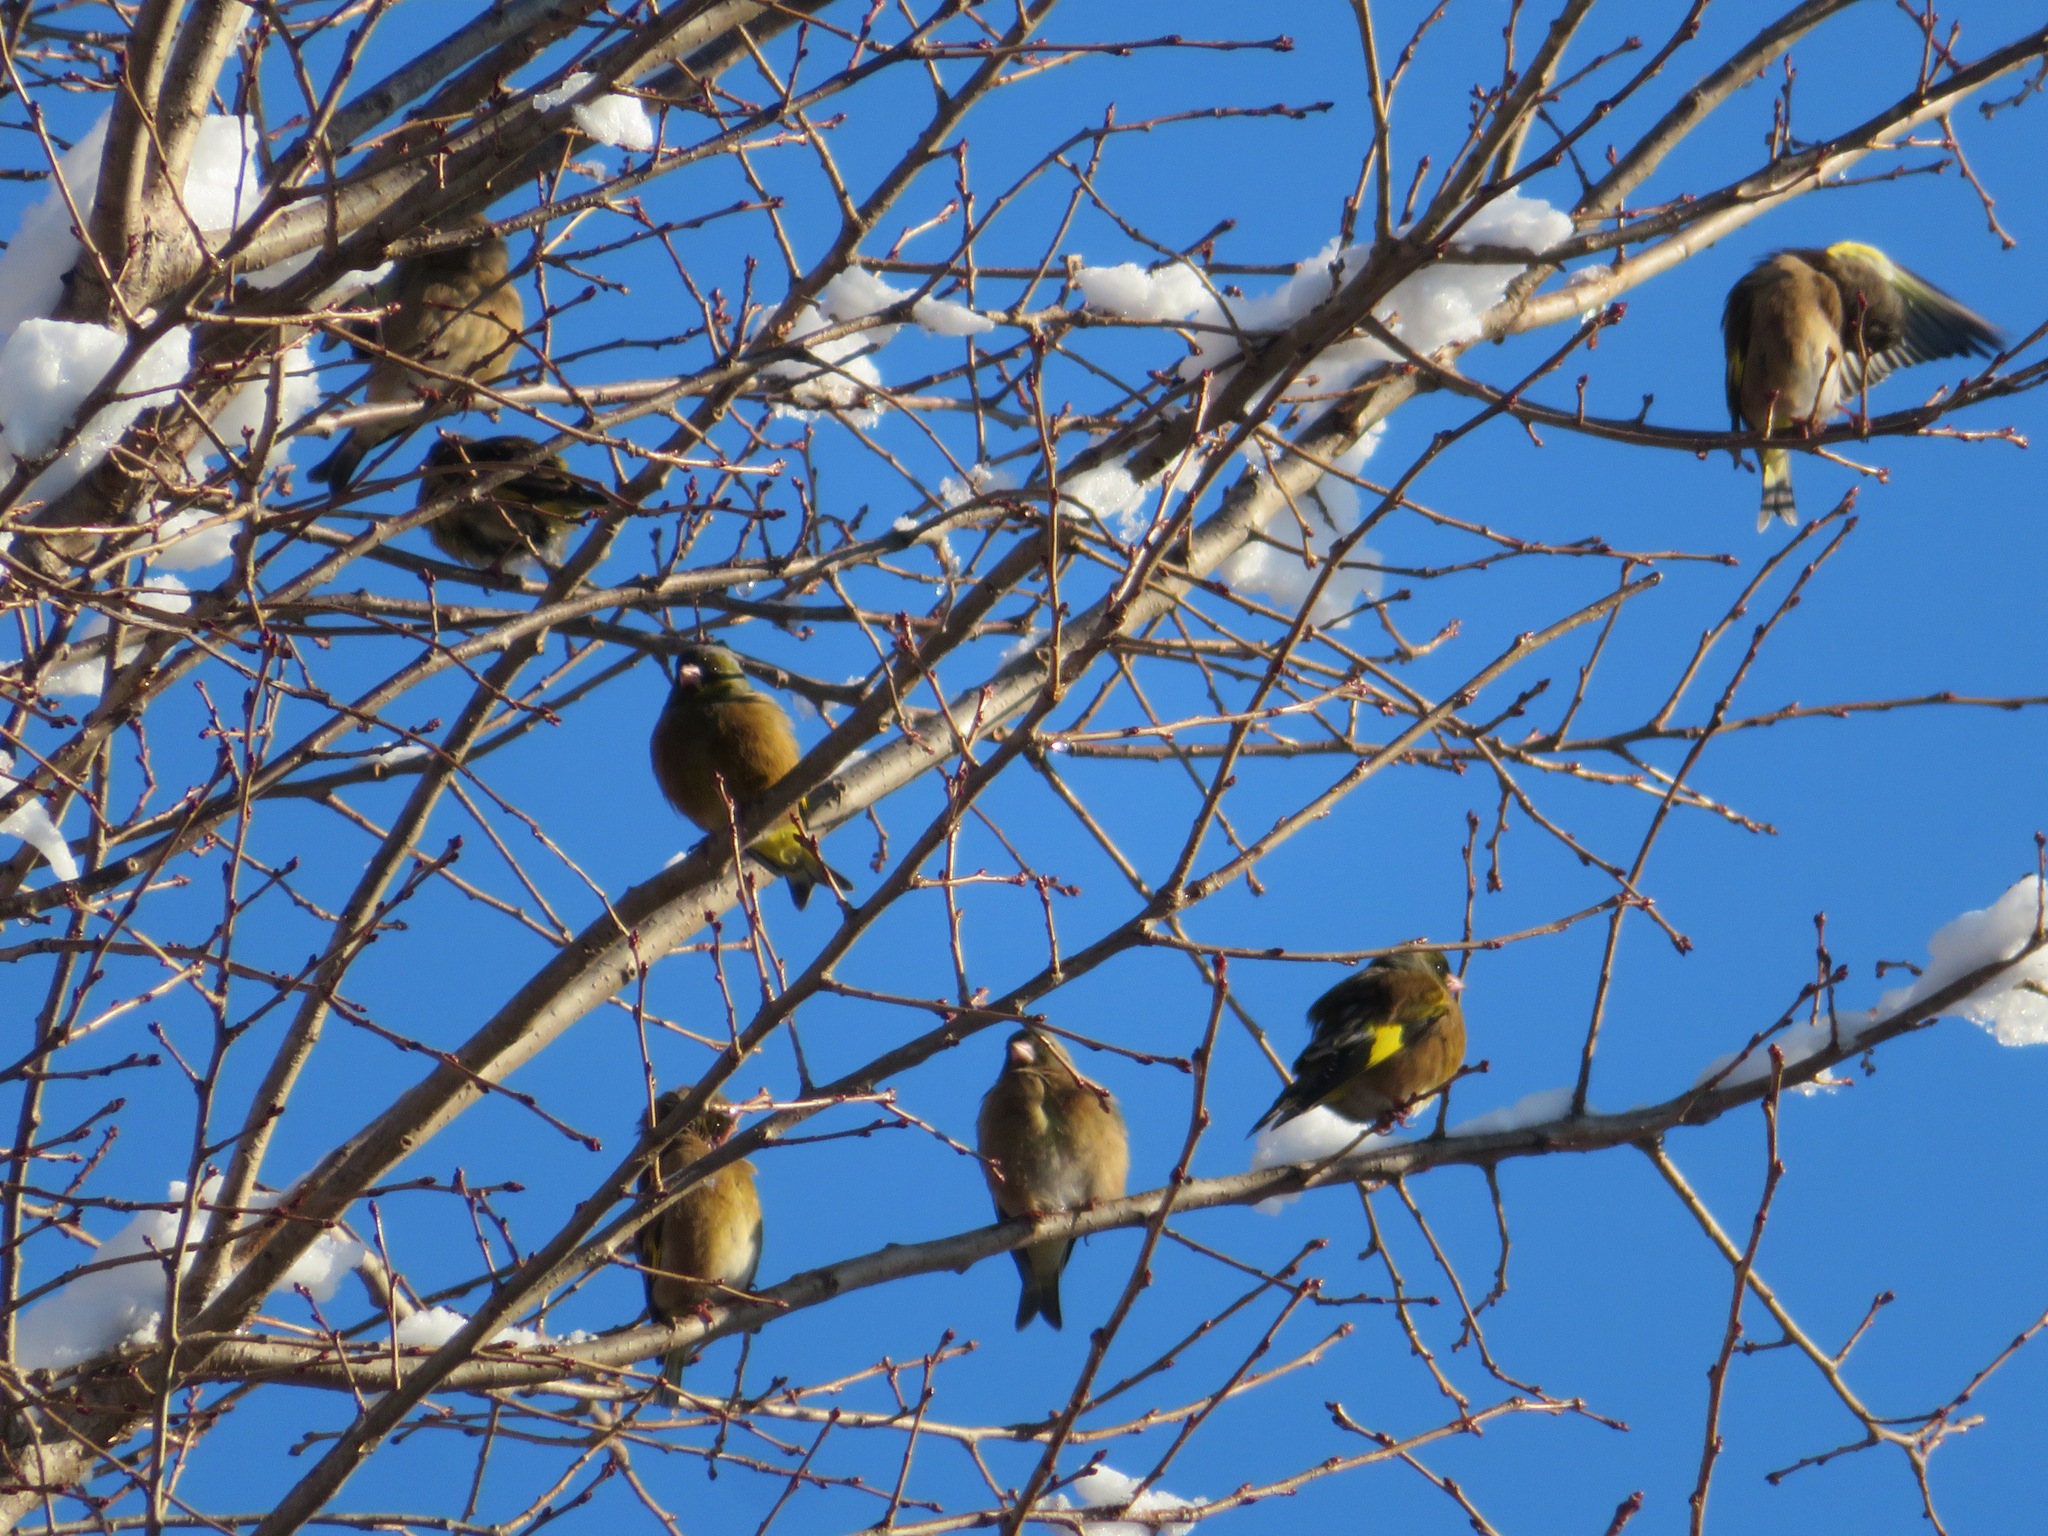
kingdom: Plantae
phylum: Tracheophyta
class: Liliopsida
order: Poales
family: Poaceae
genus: Chloris
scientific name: Chloris sinica
